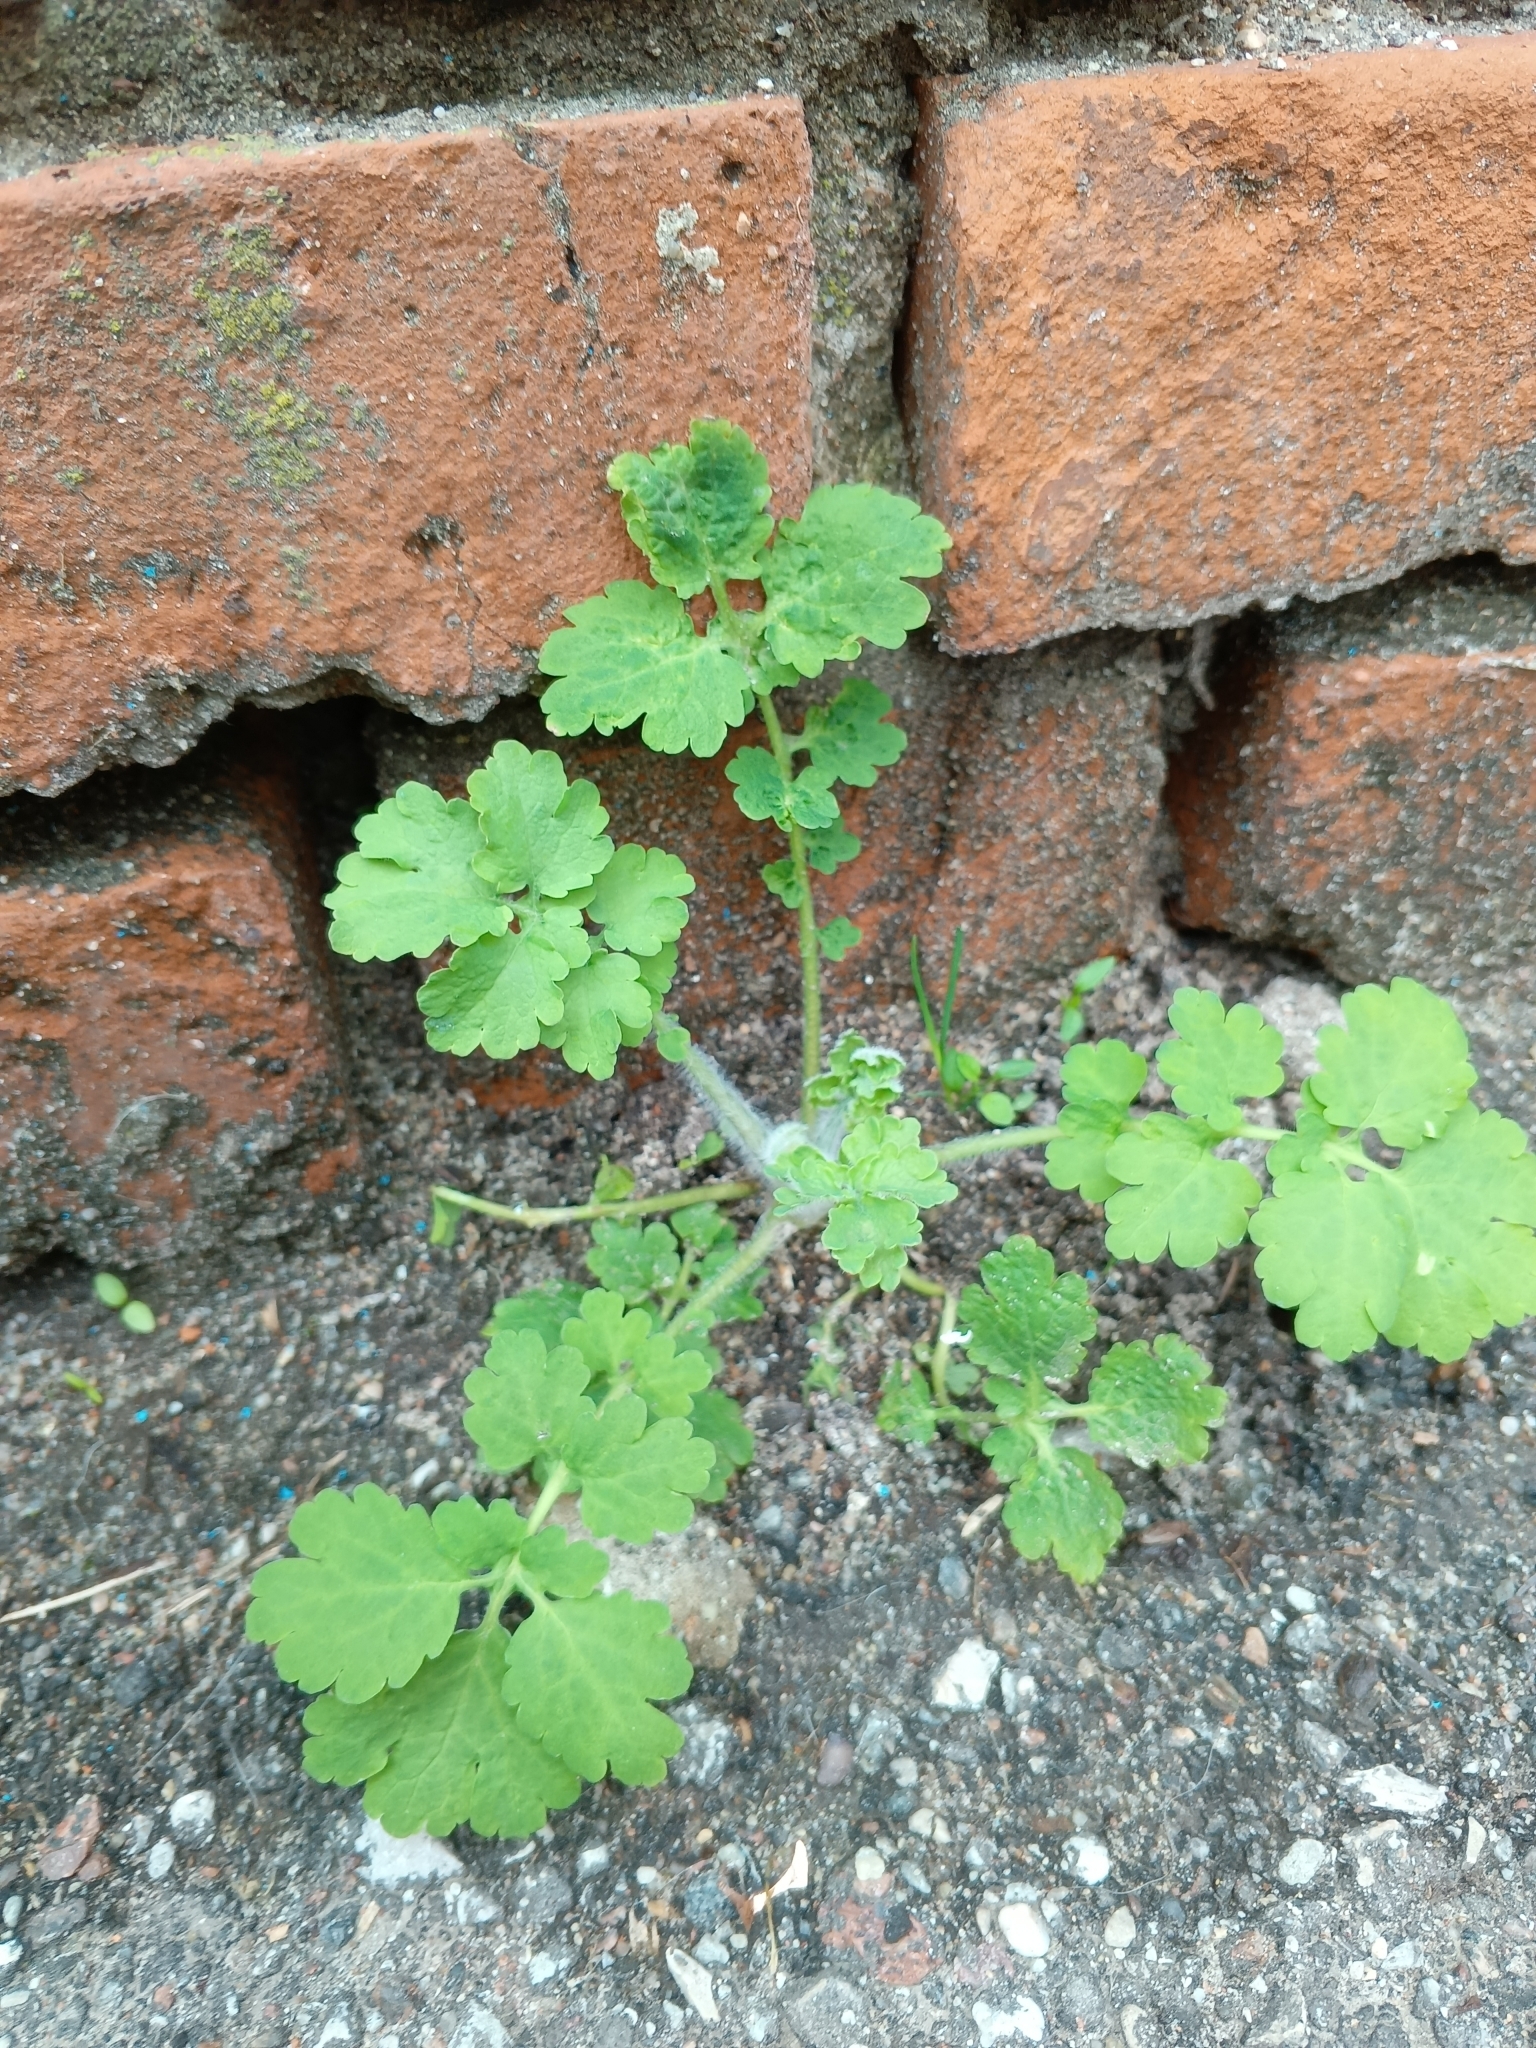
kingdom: Plantae
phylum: Tracheophyta
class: Magnoliopsida
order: Ranunculales
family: Papaveraceae
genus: Chelidonium
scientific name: Chelidonium majus
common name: Greater celandine
